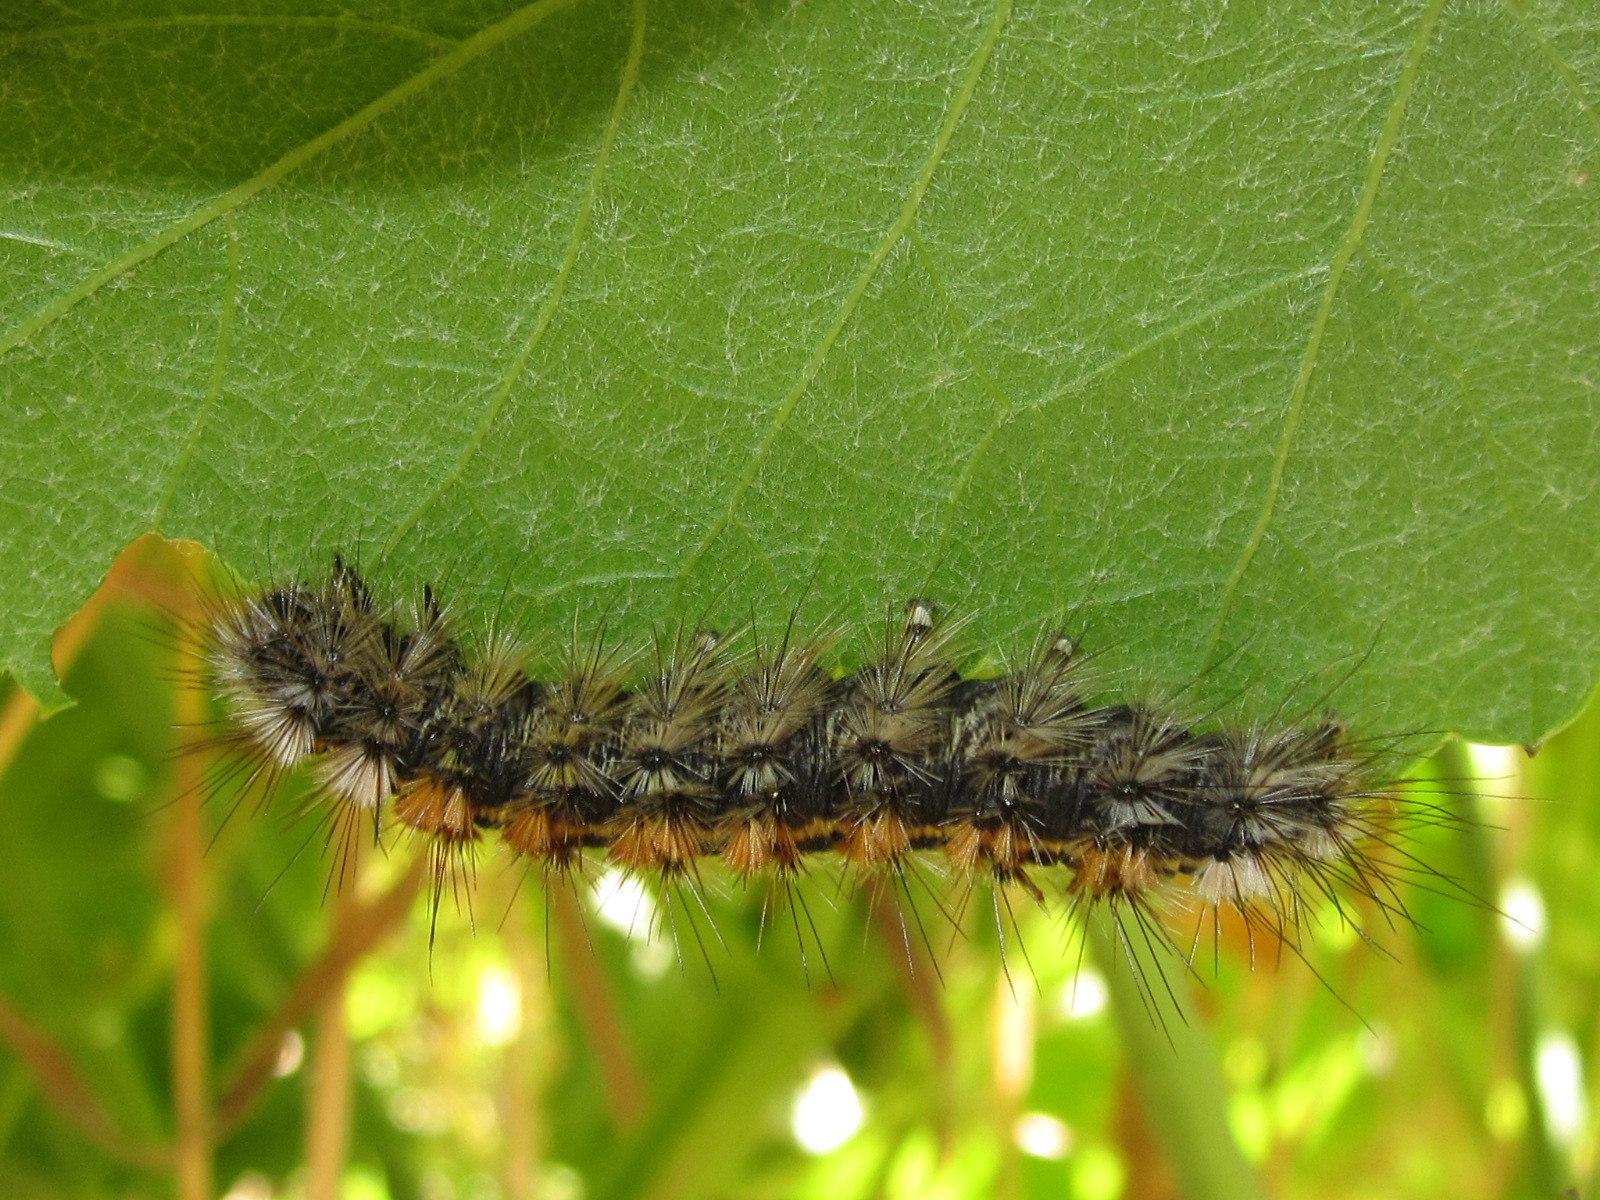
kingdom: Animalia
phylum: Arthropoda
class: Insecta
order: Lepidoptera
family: Erebidae
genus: Chilesia
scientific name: Chilesia
